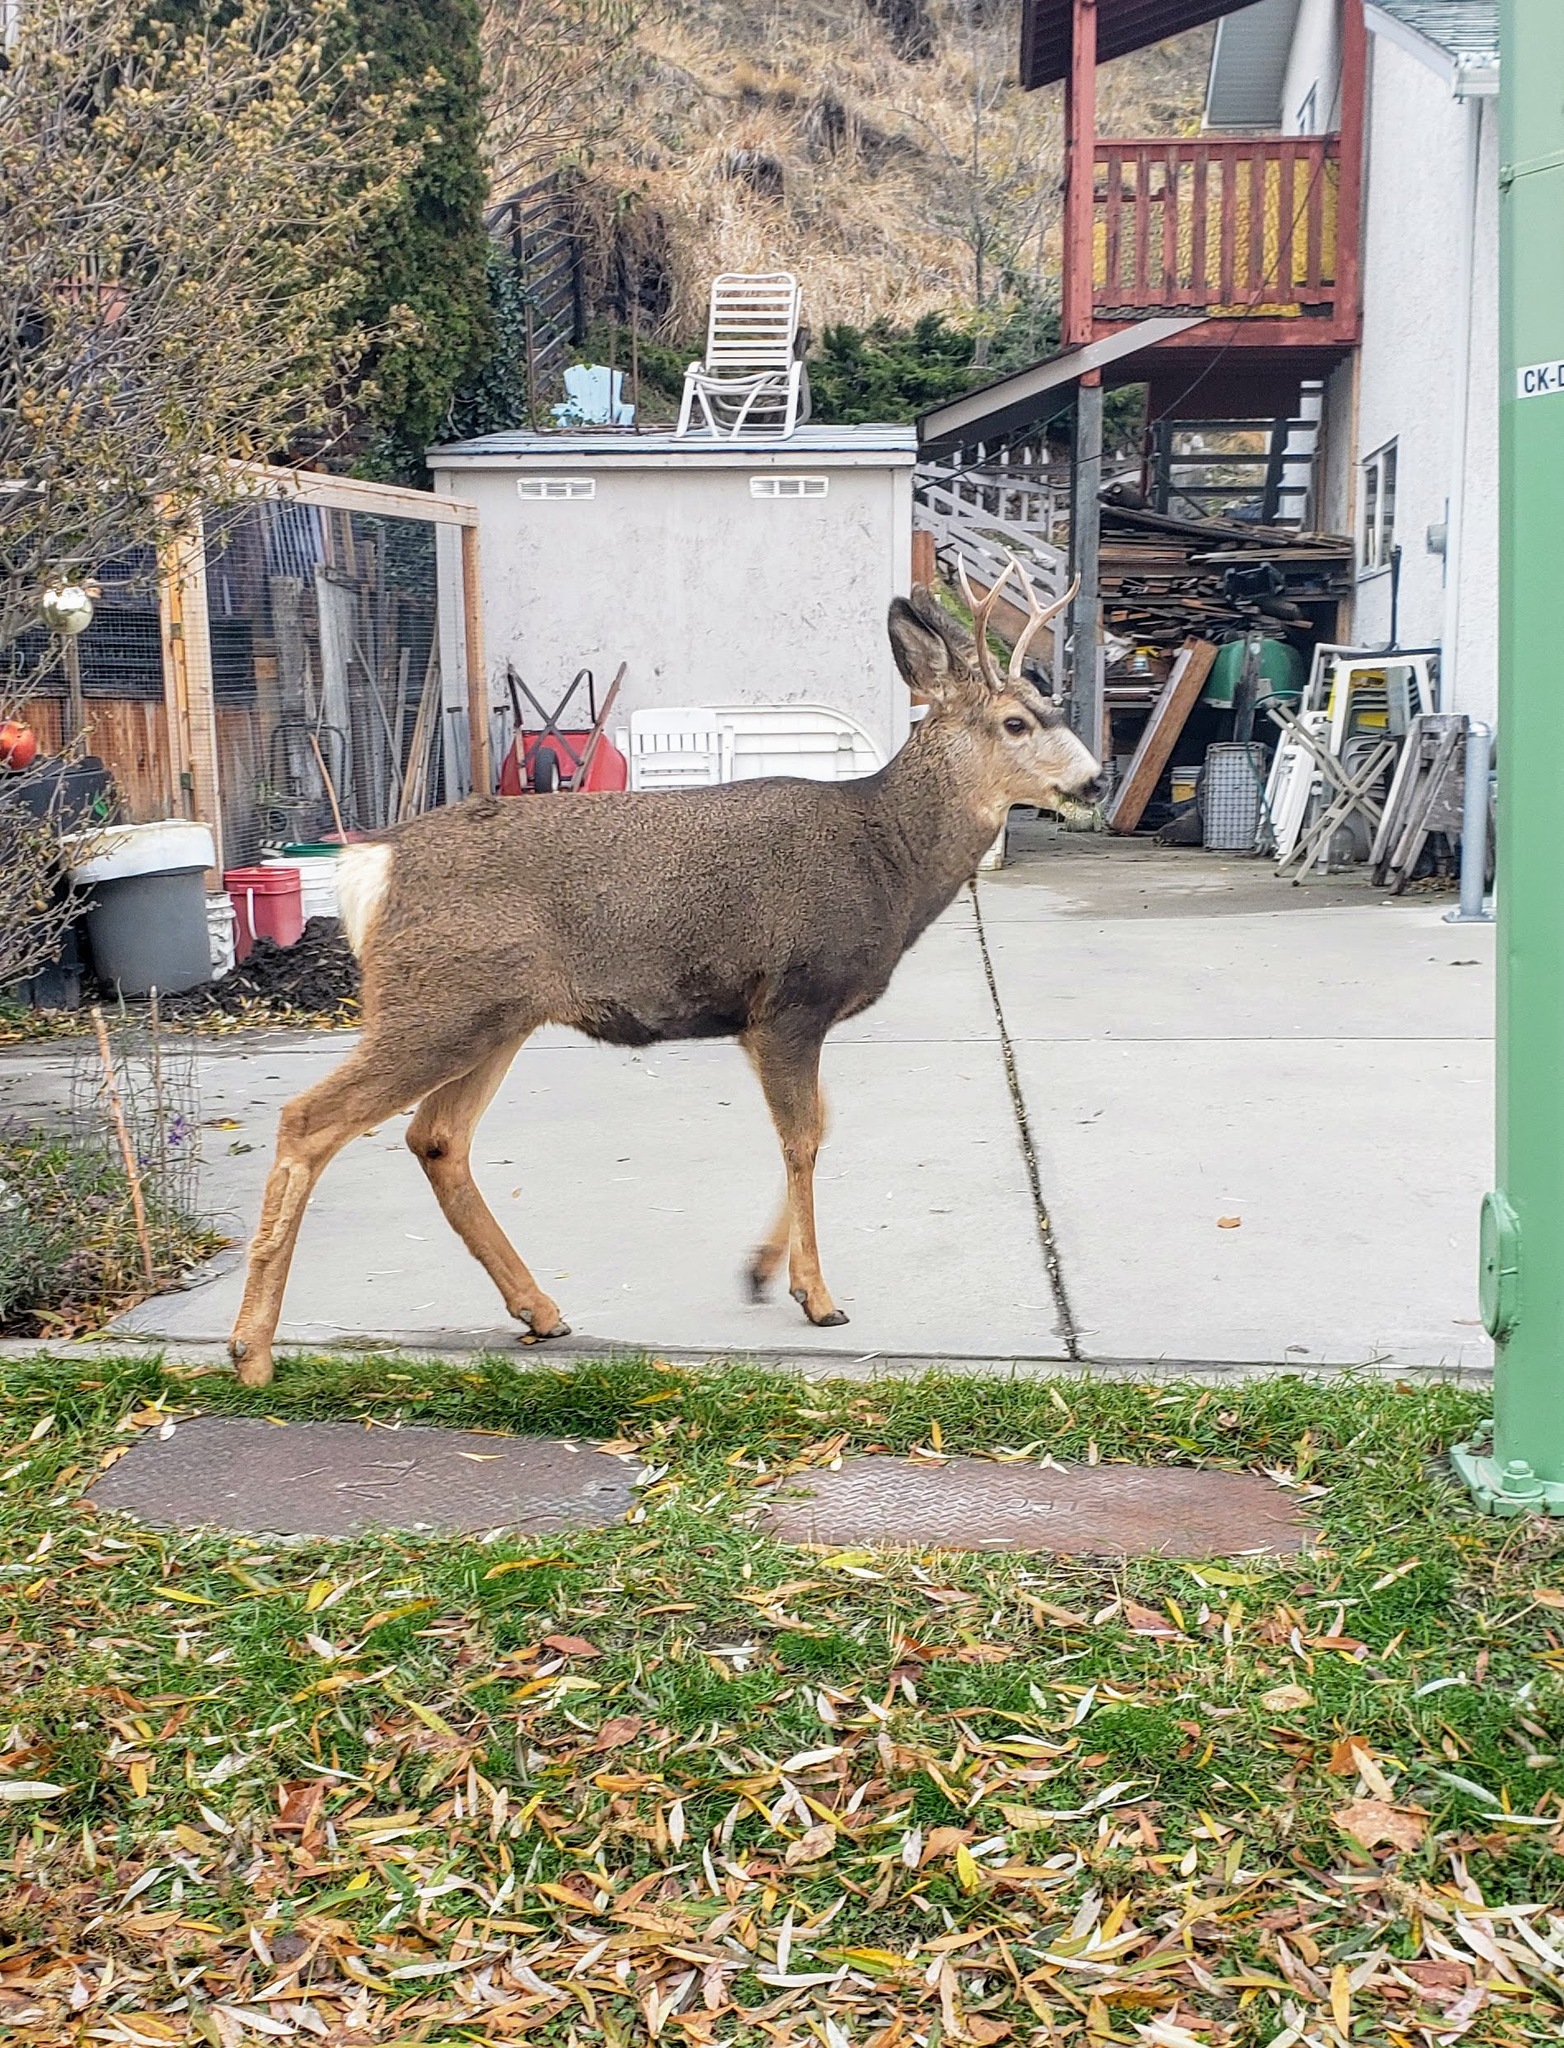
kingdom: Animalia
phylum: Chordata
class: Mammalia
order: Artiodactyla
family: Cervidae
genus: Odocoileus
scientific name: Odocoileus hemionus
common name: Mule deer
